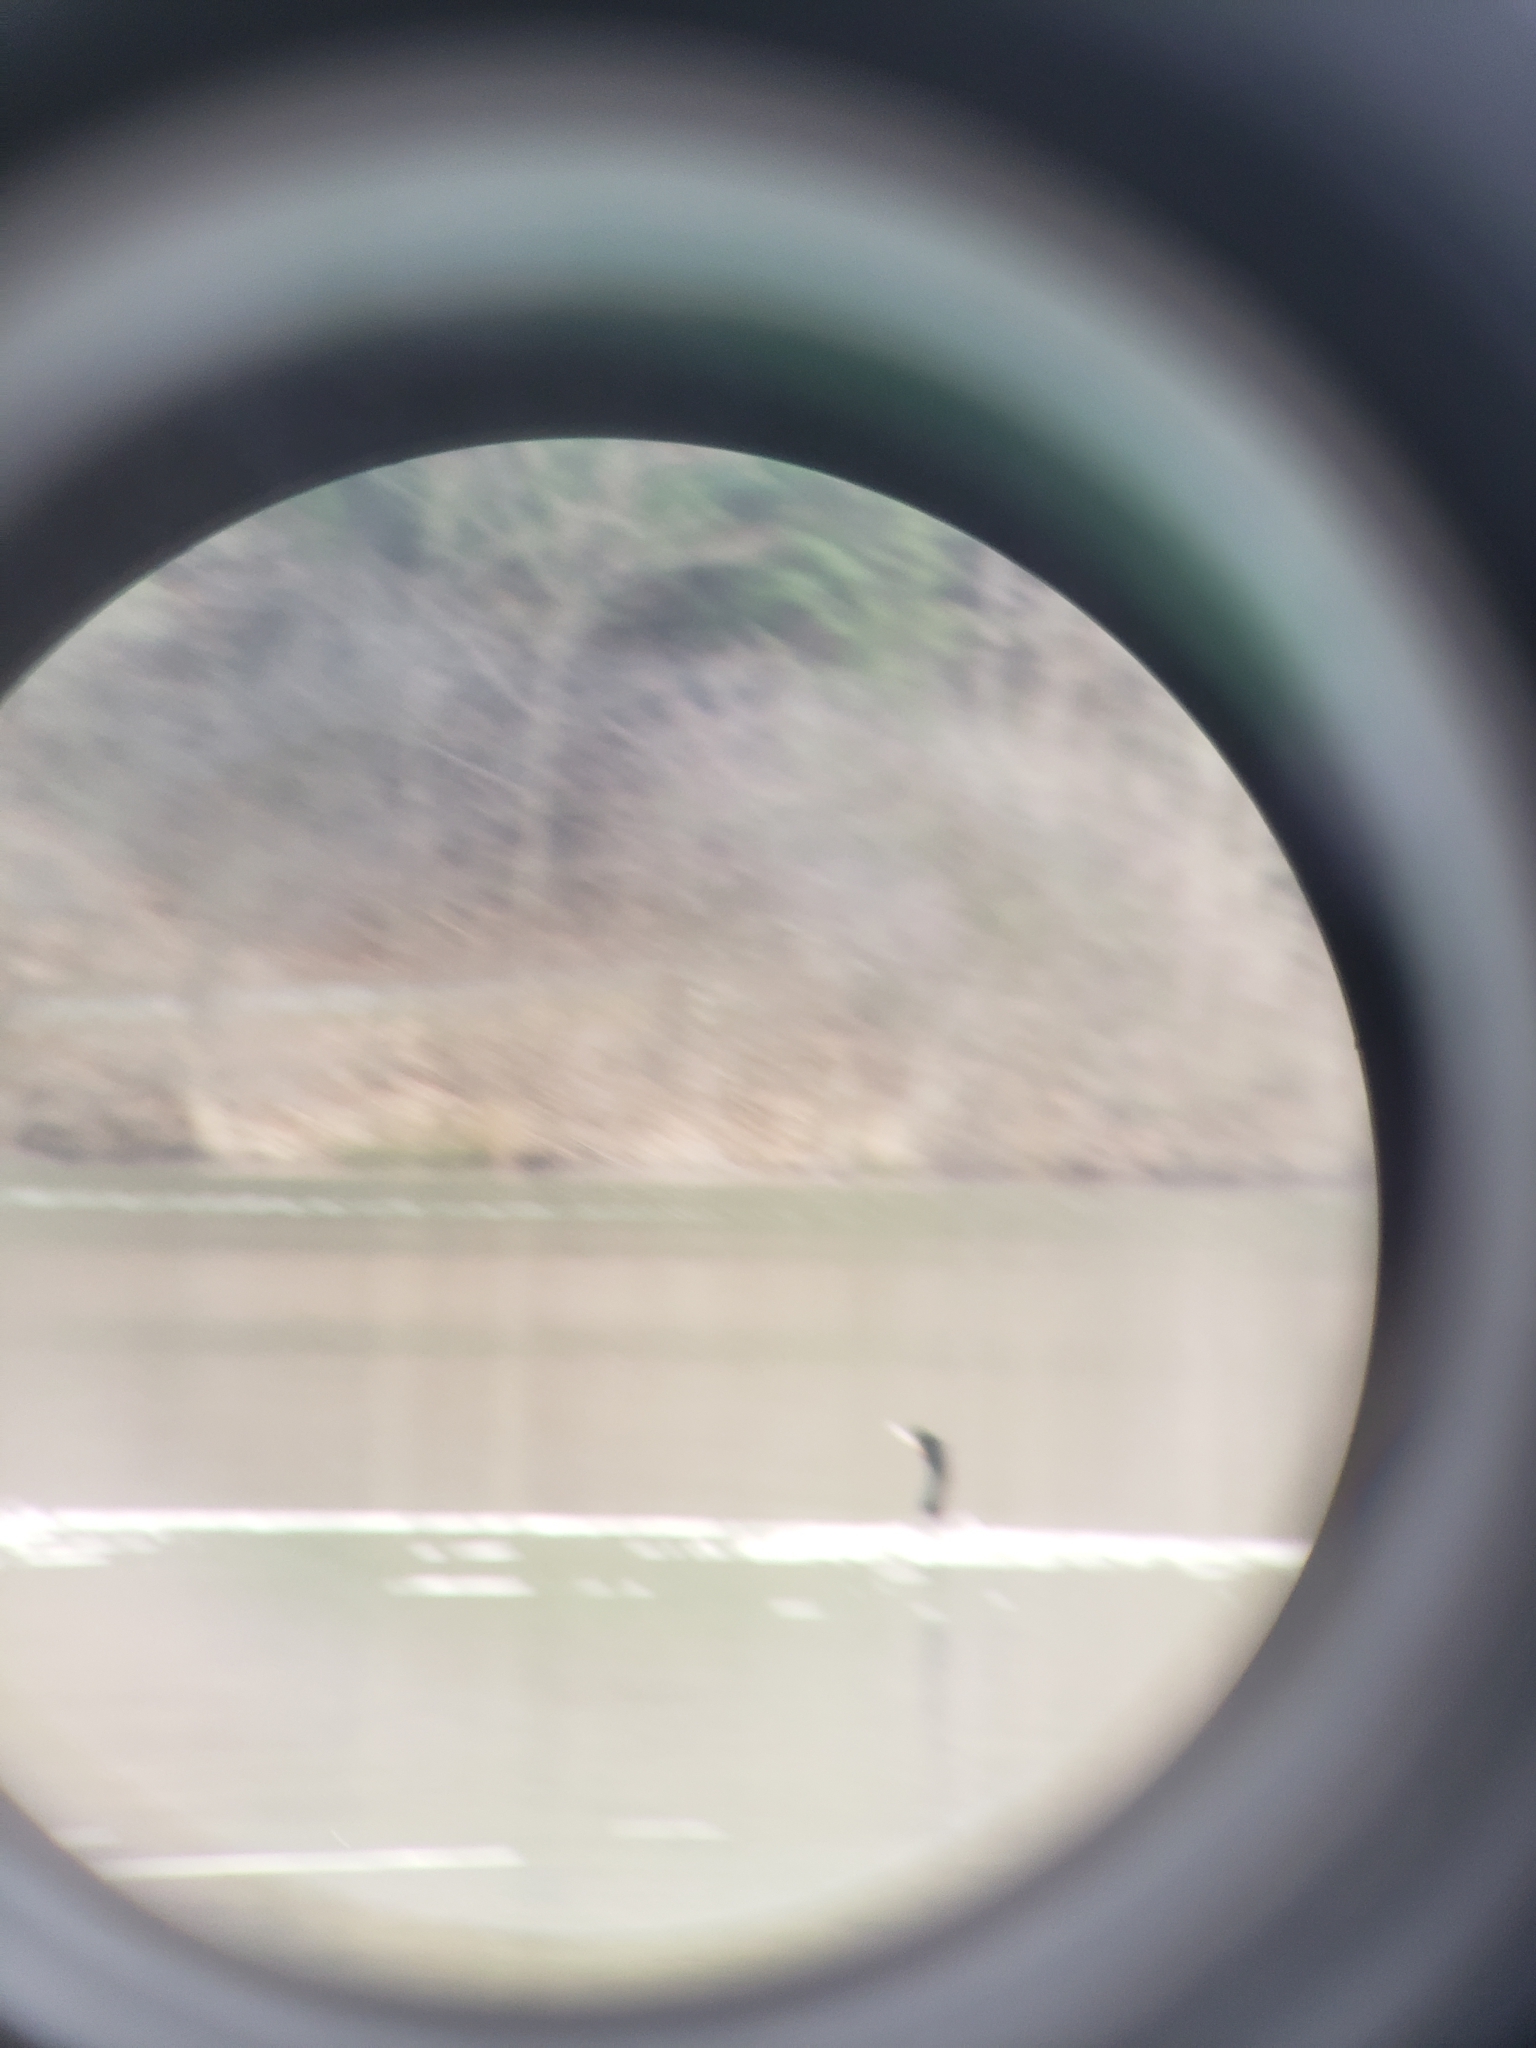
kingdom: Animalia
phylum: Chordata
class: Aves
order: Suliformes
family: Phalacrocoracidae
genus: Phalacrocorax
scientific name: Phalacrocorax auritus
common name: Double-crested cormorant
